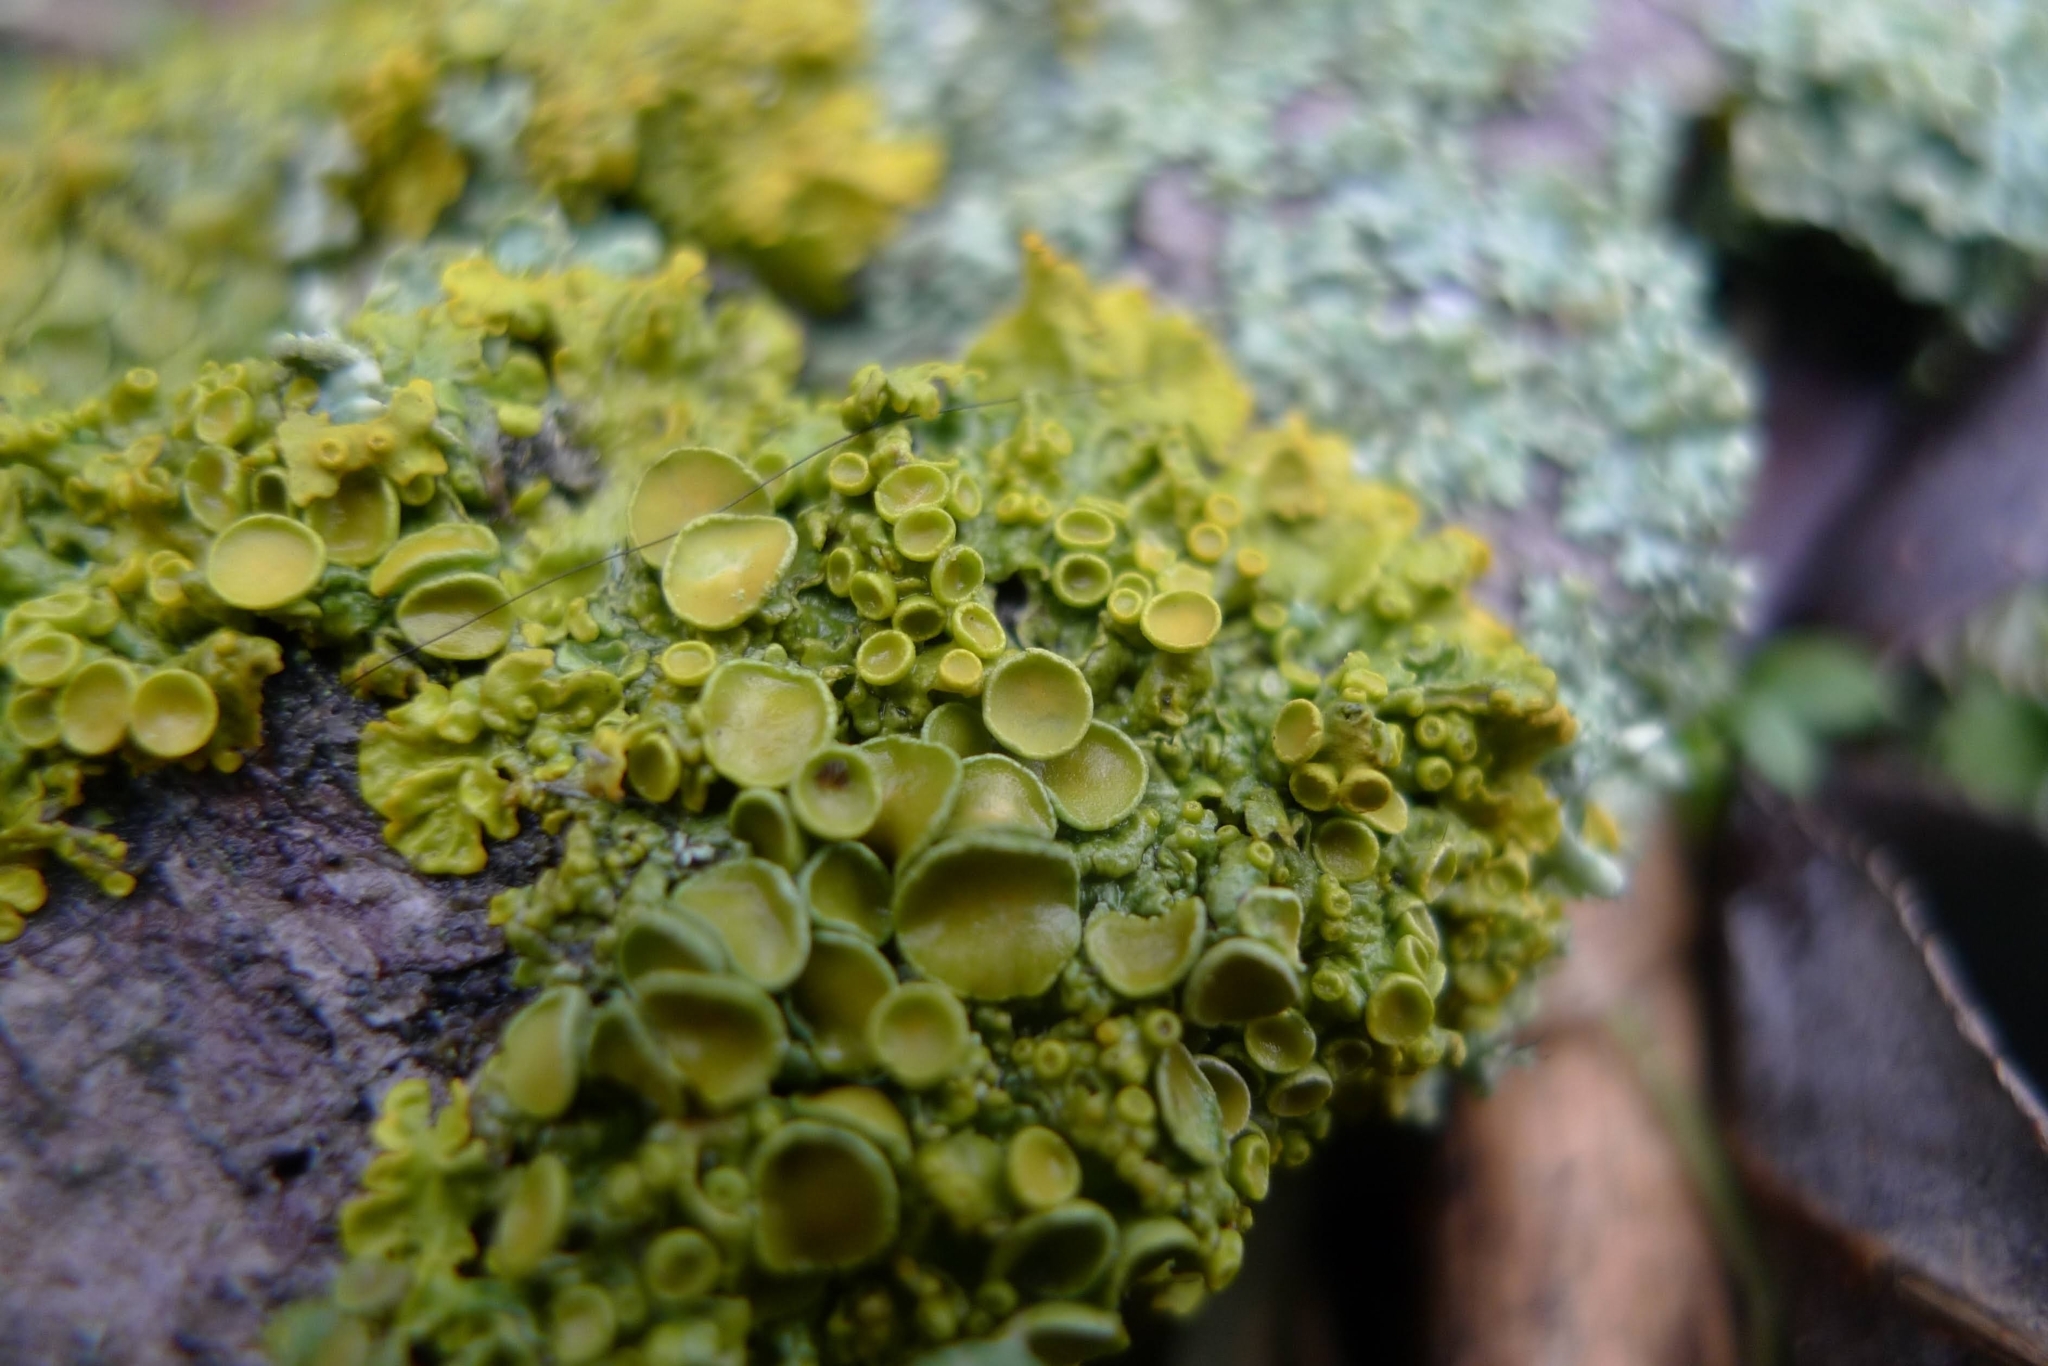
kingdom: Fungi
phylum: Ascomycota
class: Lecanoromycetes
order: Teloschistales
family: Teloschistaceae
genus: Xanthoria
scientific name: Xanthoria parietina
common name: Common orange lichen
